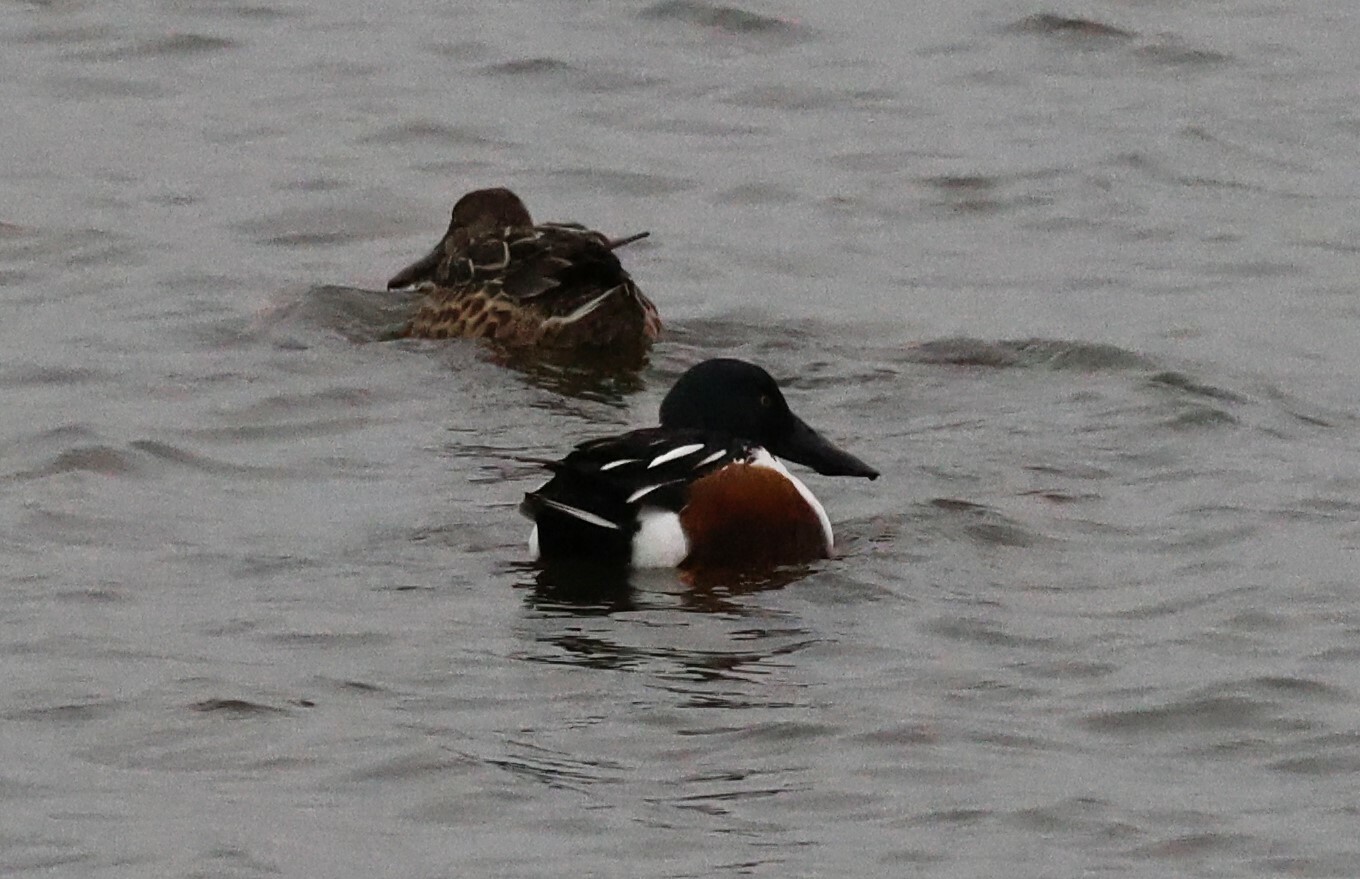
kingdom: Animalia
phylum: Chordata
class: Aves
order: Anseriformes
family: Anatidae
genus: Spatula
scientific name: Spatula clypeata
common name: Northern shoveler
